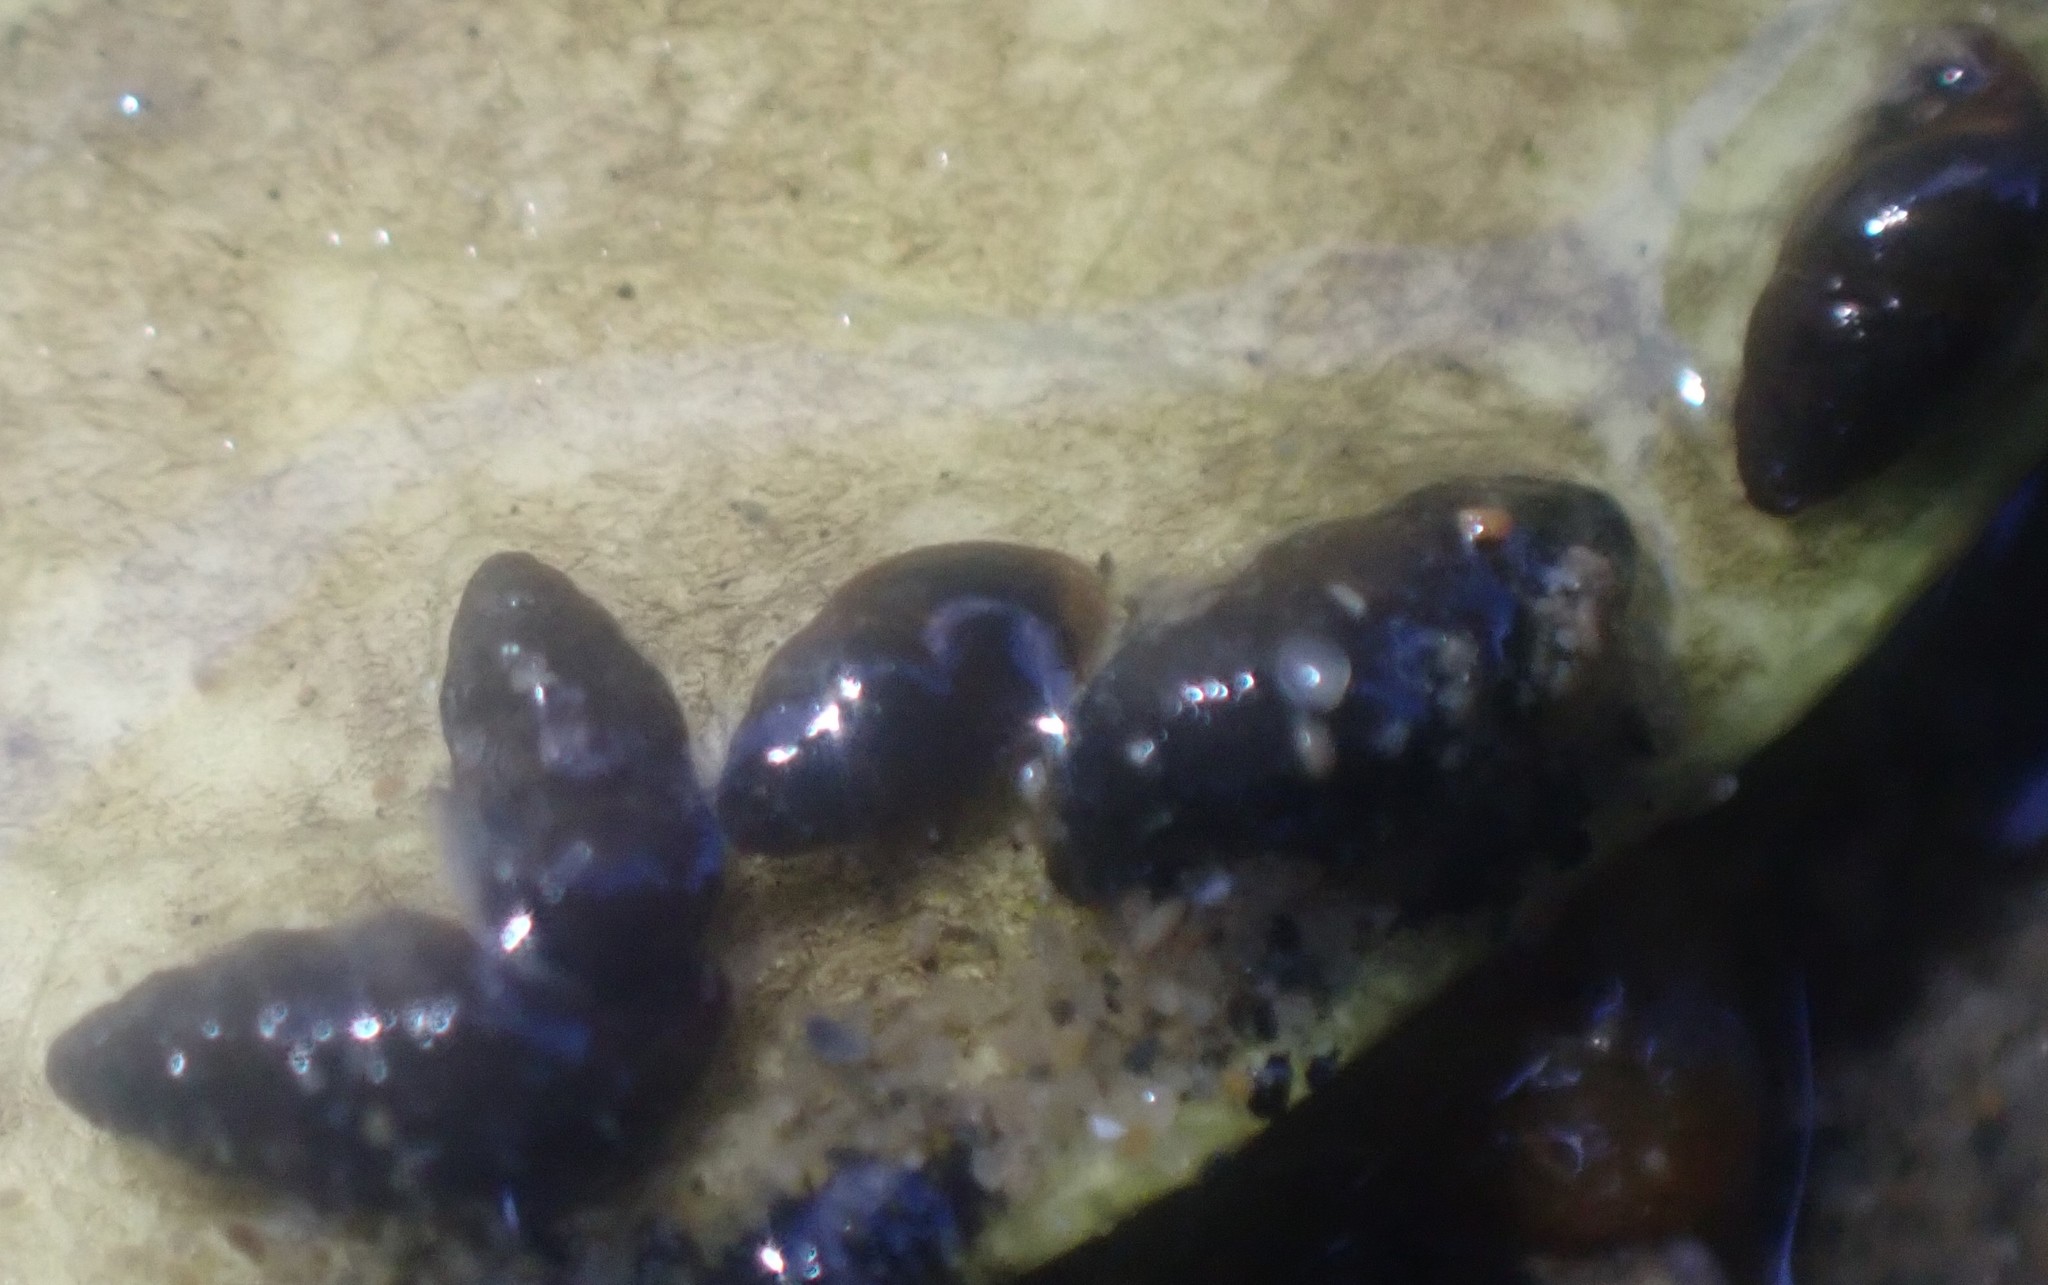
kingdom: Animalia
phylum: Mollusca
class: Gastropoda
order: Littorinimorpha
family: Tateidae
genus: Halopyrgus
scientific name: Halopyrgus pupoides
